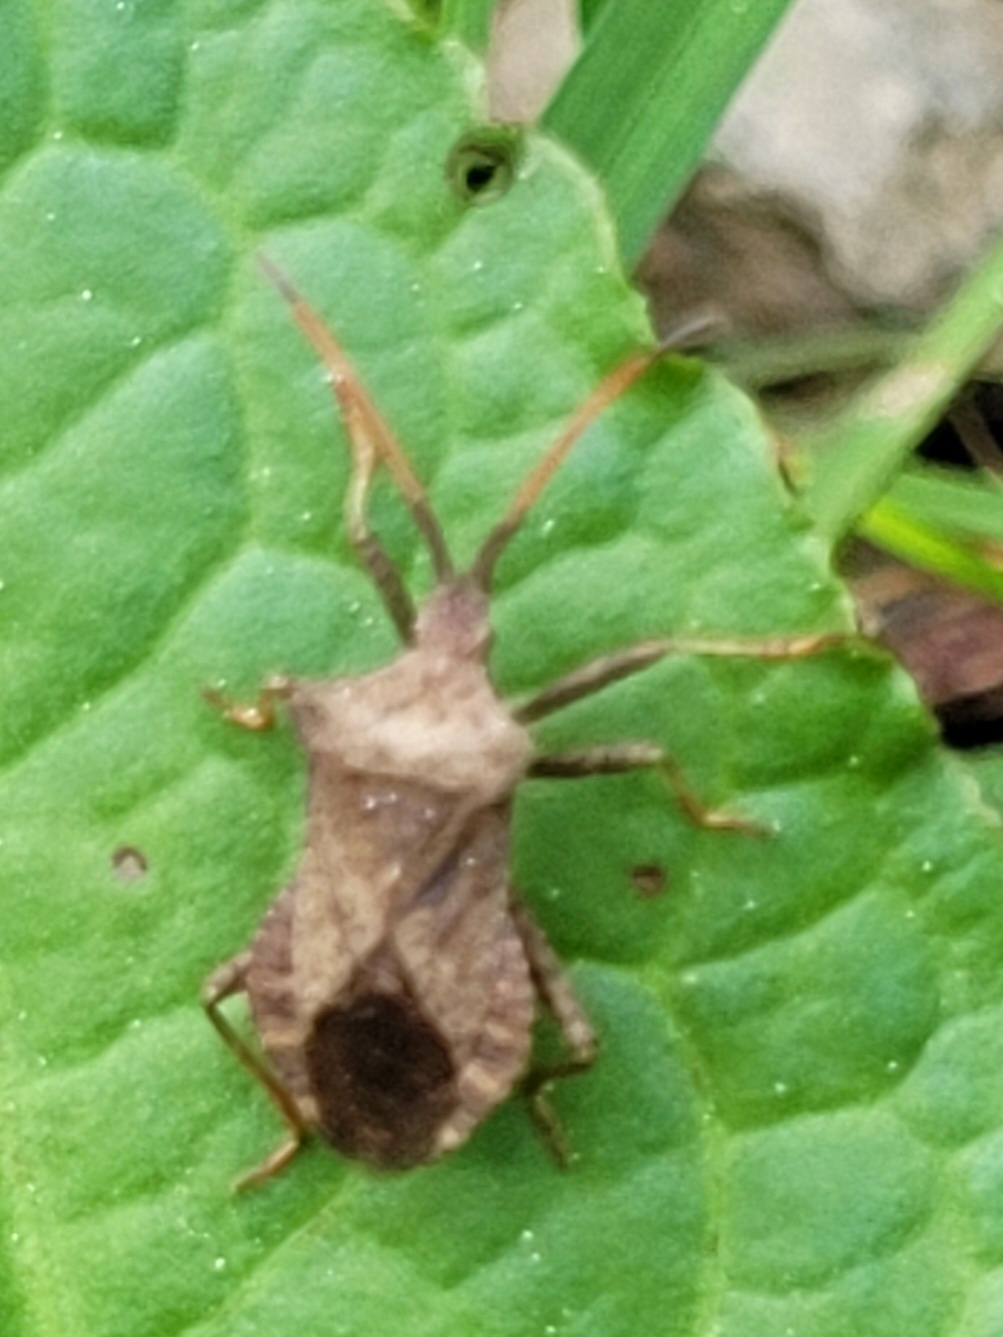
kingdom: Animalia
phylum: Arthropoda
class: Insecta
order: Hemiptera
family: Coreidae
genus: Coreus
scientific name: Coreus marginatus
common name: Dock bug
